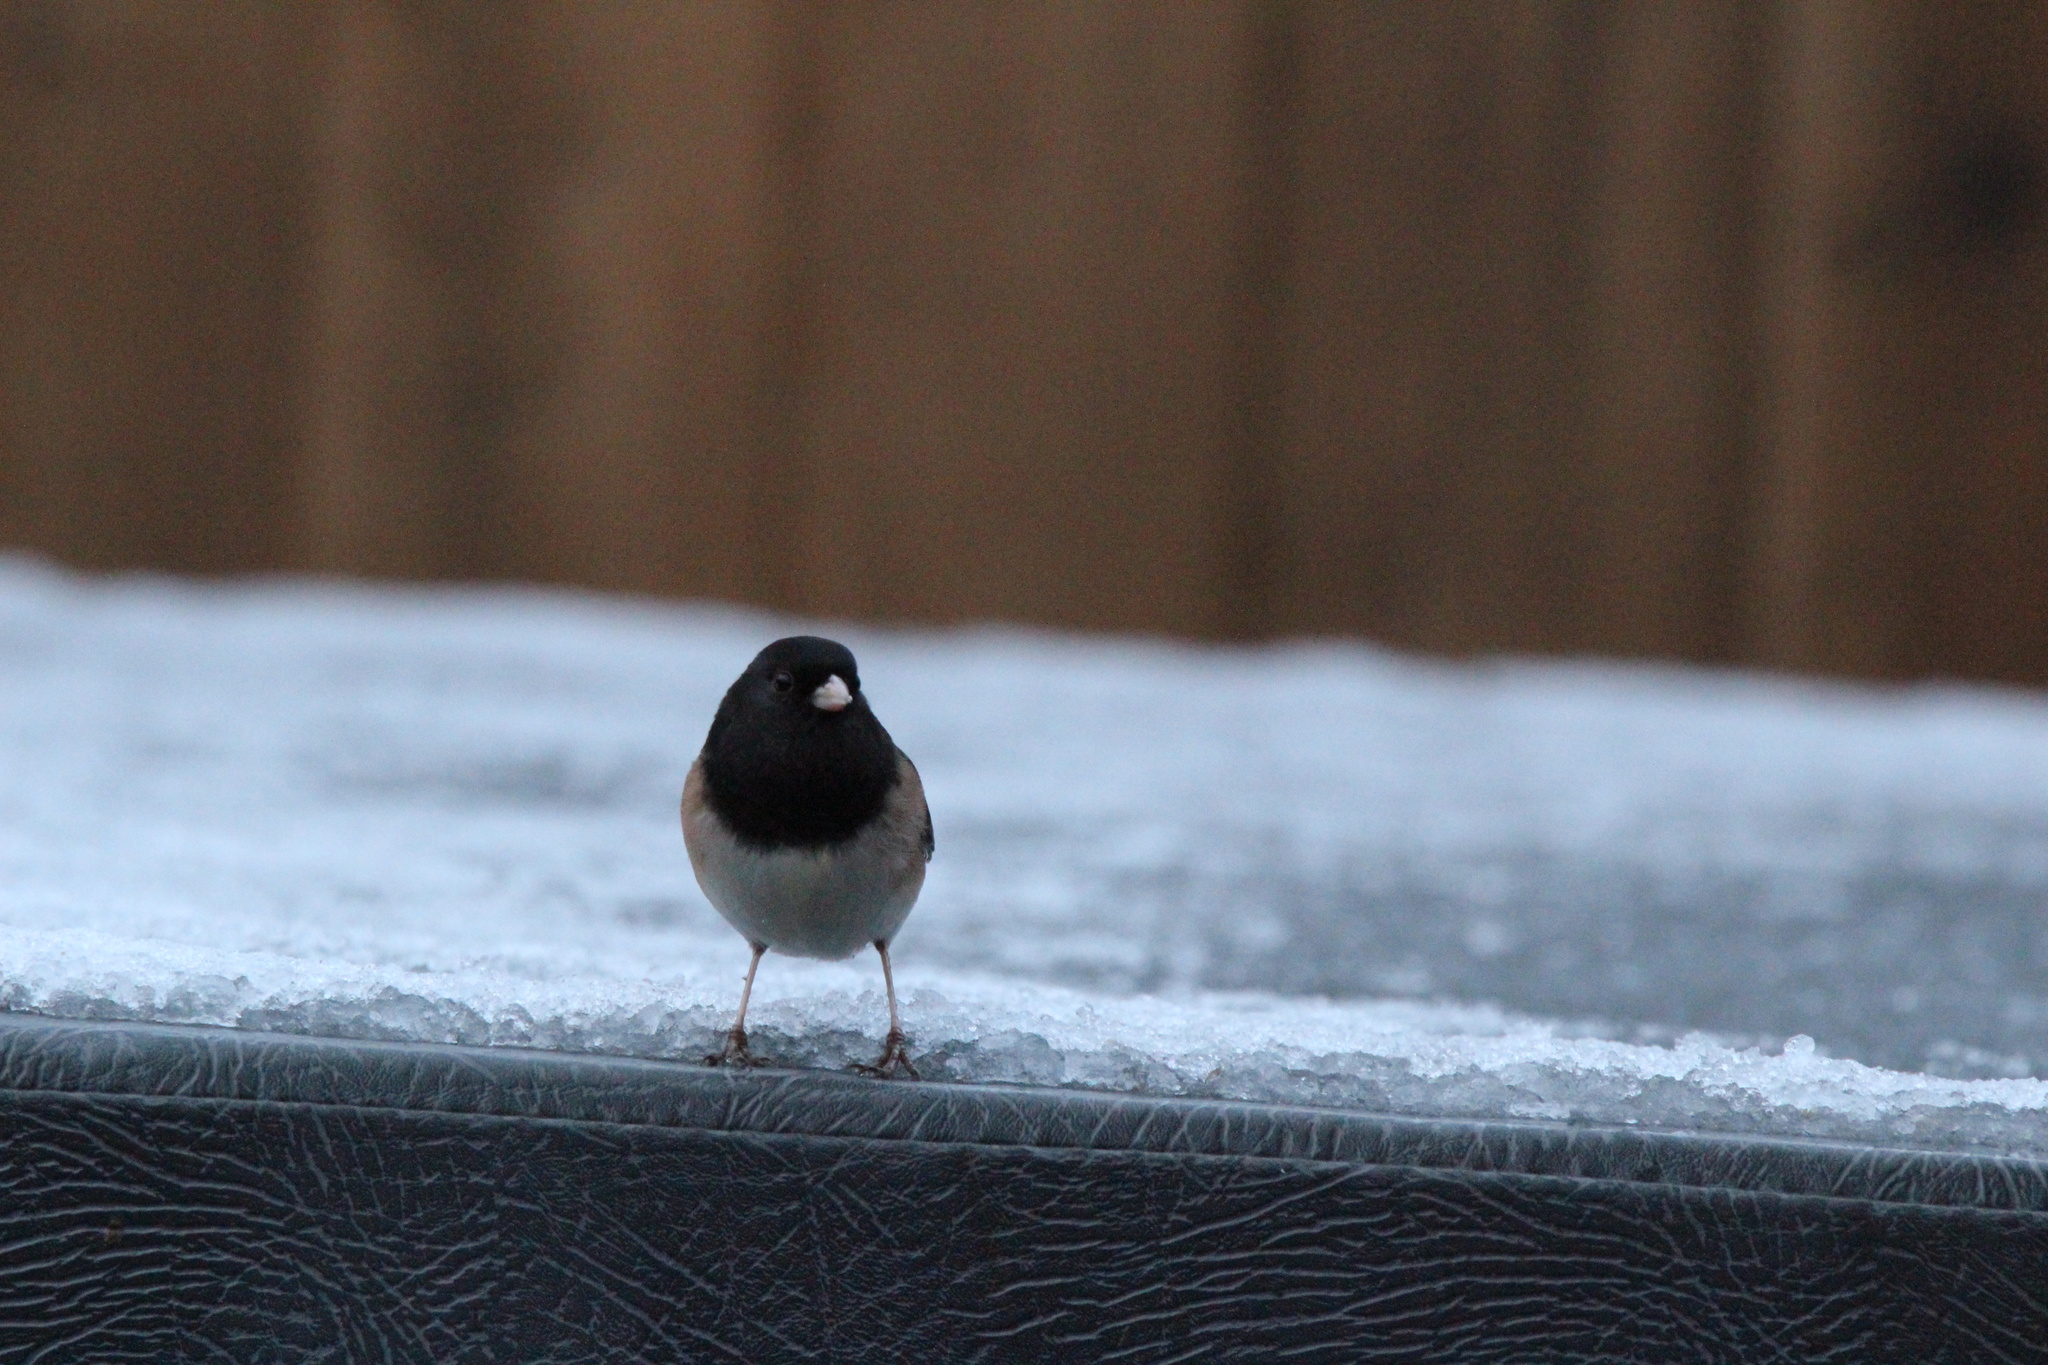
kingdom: Animalia
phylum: Chordata
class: Aves
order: Passeriformes
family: Passerellidae
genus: Junco
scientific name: Junco hyemalis
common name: Dark-eyed junco
